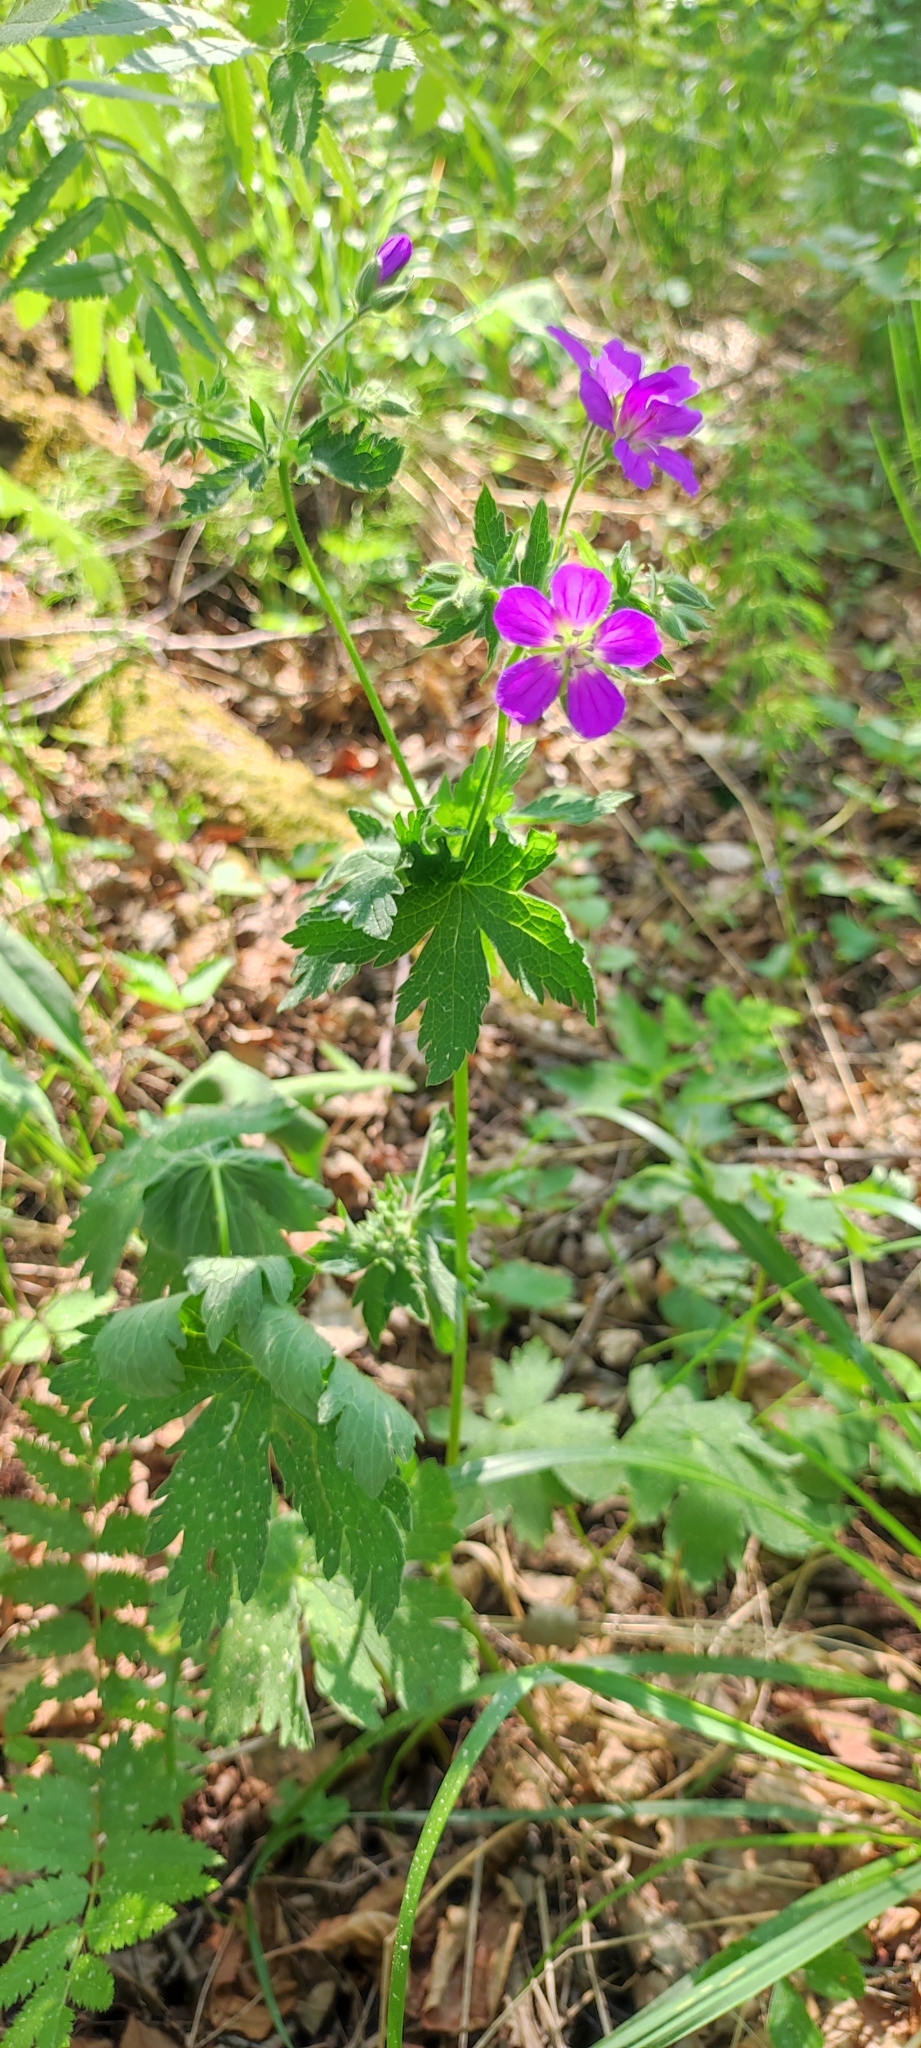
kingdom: Plantae
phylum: Tracheophyta
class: Magnoliopsida
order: Geraniales
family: Geraniaceae
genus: Geranium
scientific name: Geranium sylvaticum
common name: Wood crane's-bill
